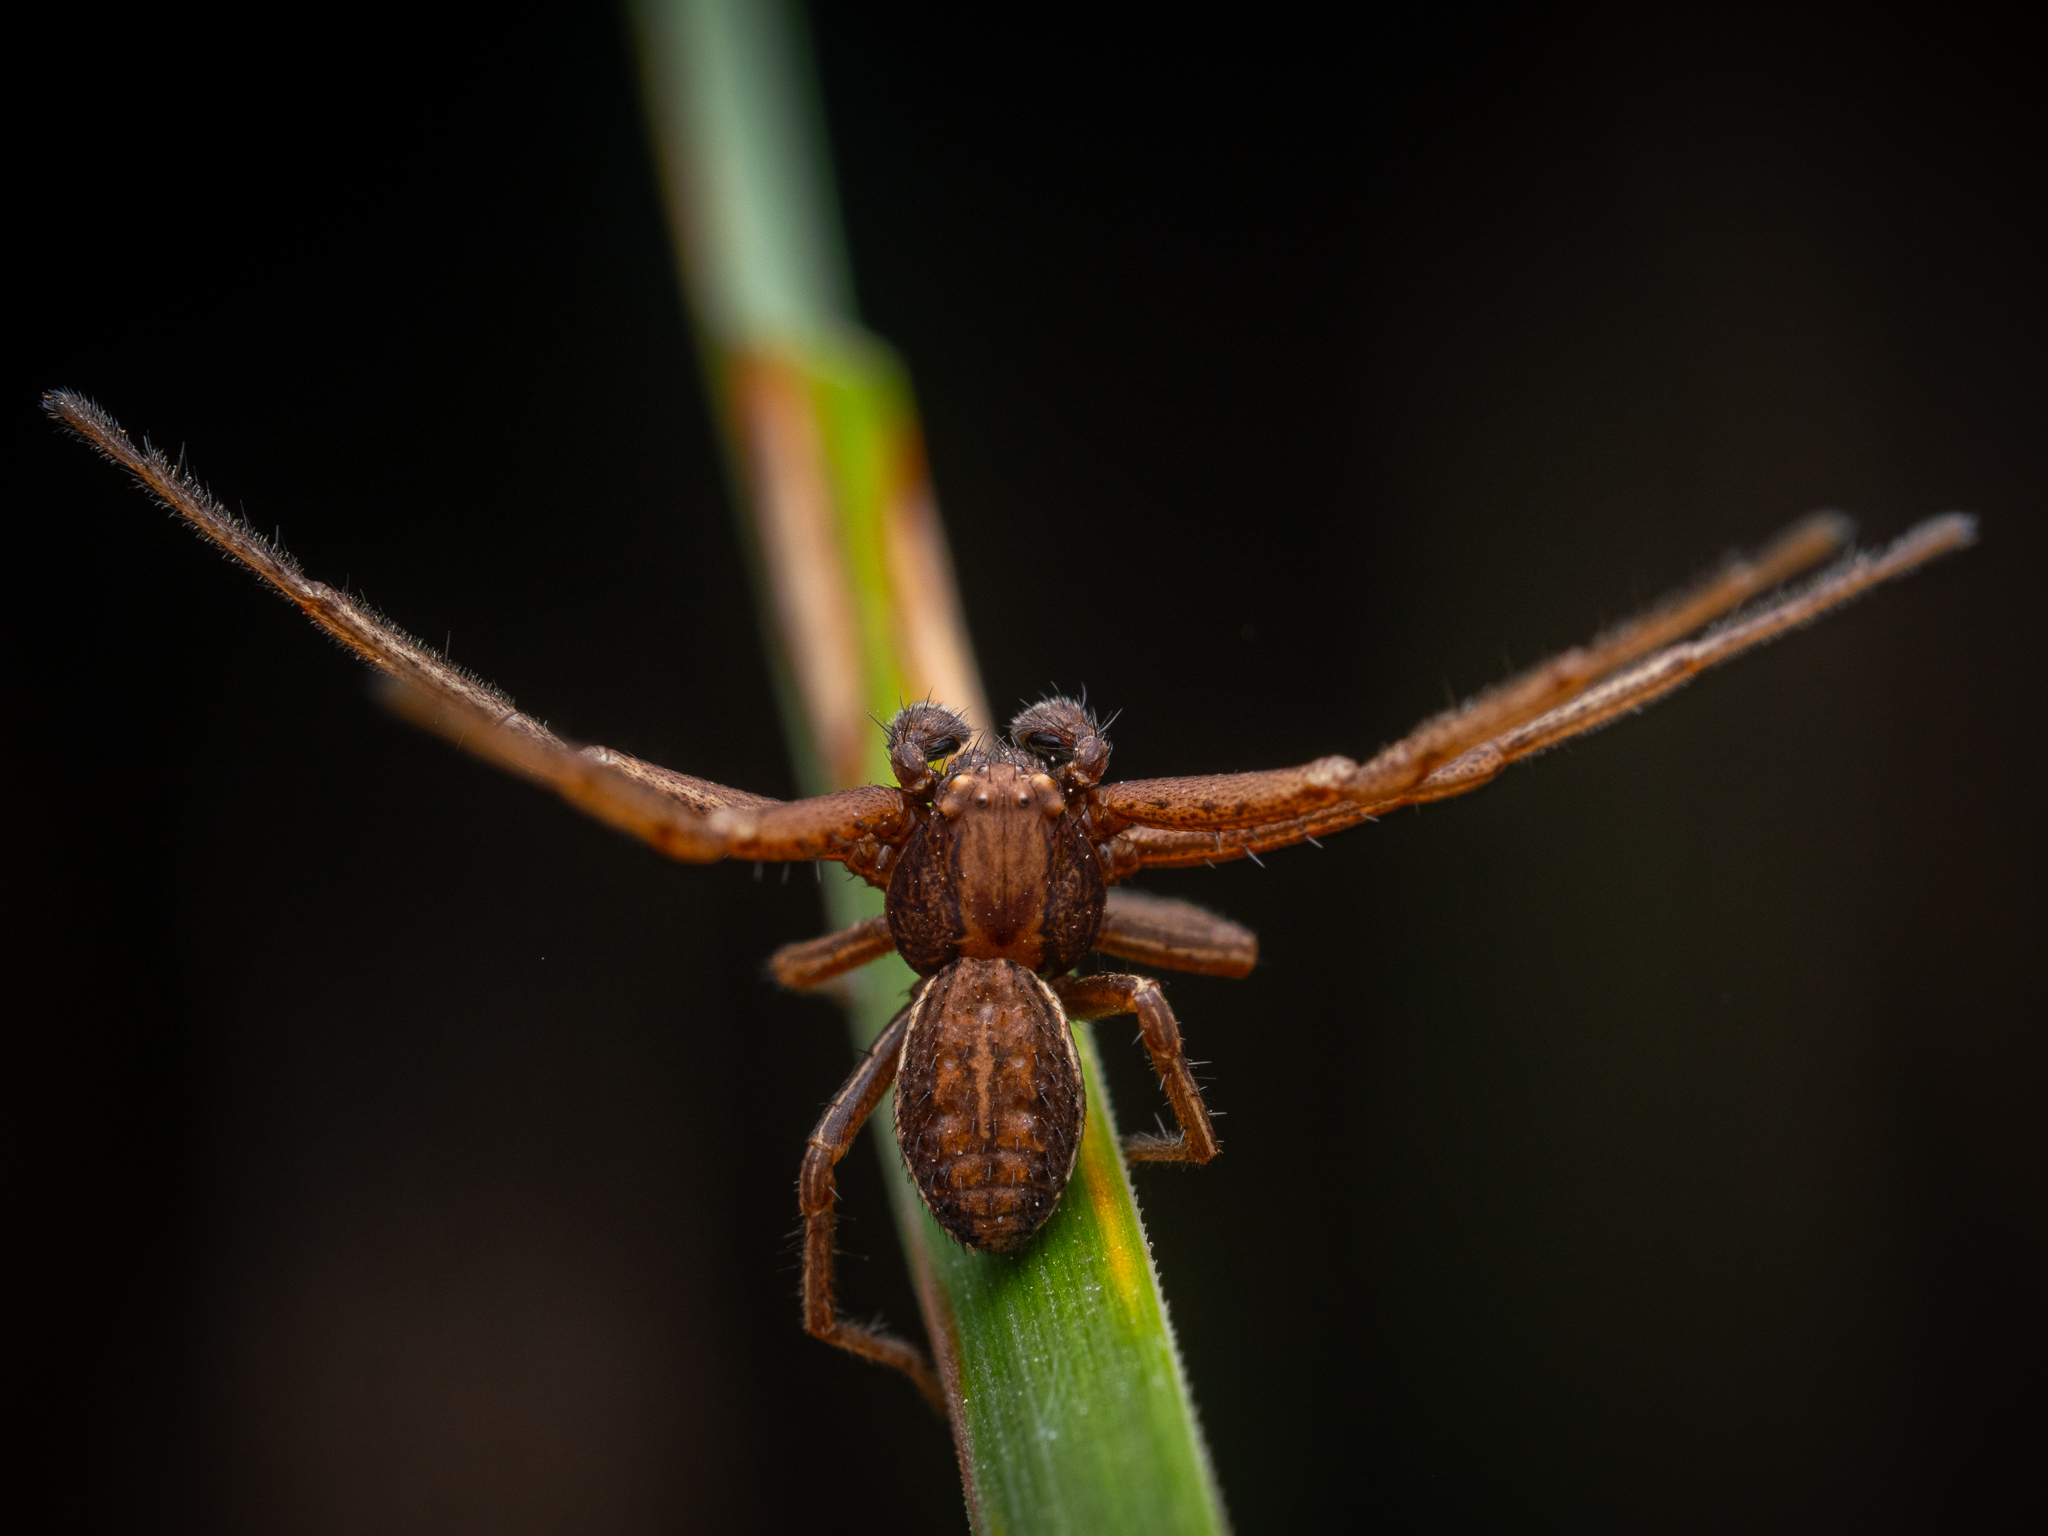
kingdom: Animalia
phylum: Arthropoda
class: Arachnida
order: Araneae
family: Thomisidae
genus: Spiracme
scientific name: Spiracme striatipes
